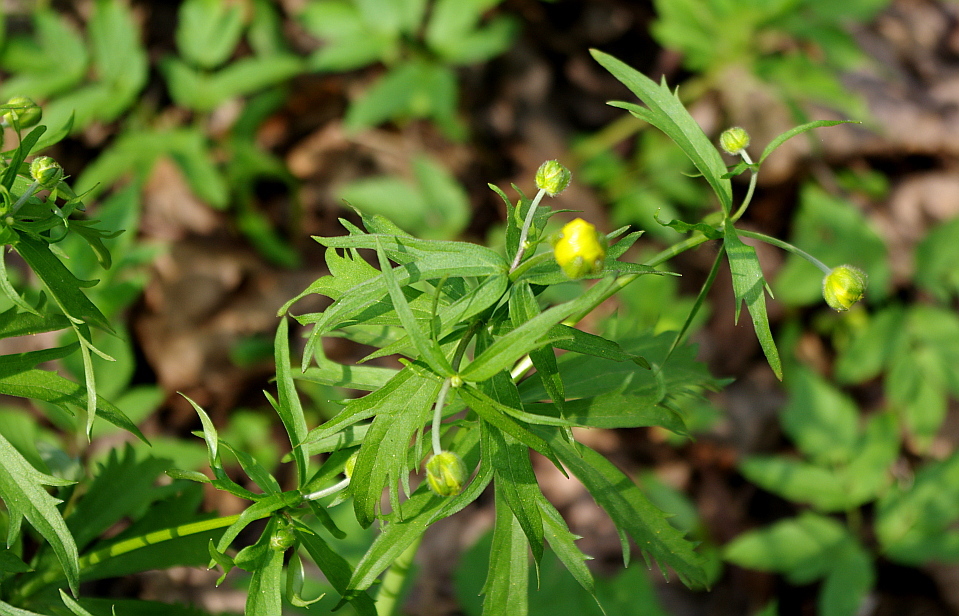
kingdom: Plantae
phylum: Tracheophyta
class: Magnoliopsida
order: Ranunculales
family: Ranunculaceae
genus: Ranunculus
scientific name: Ranunculus cassubicus
